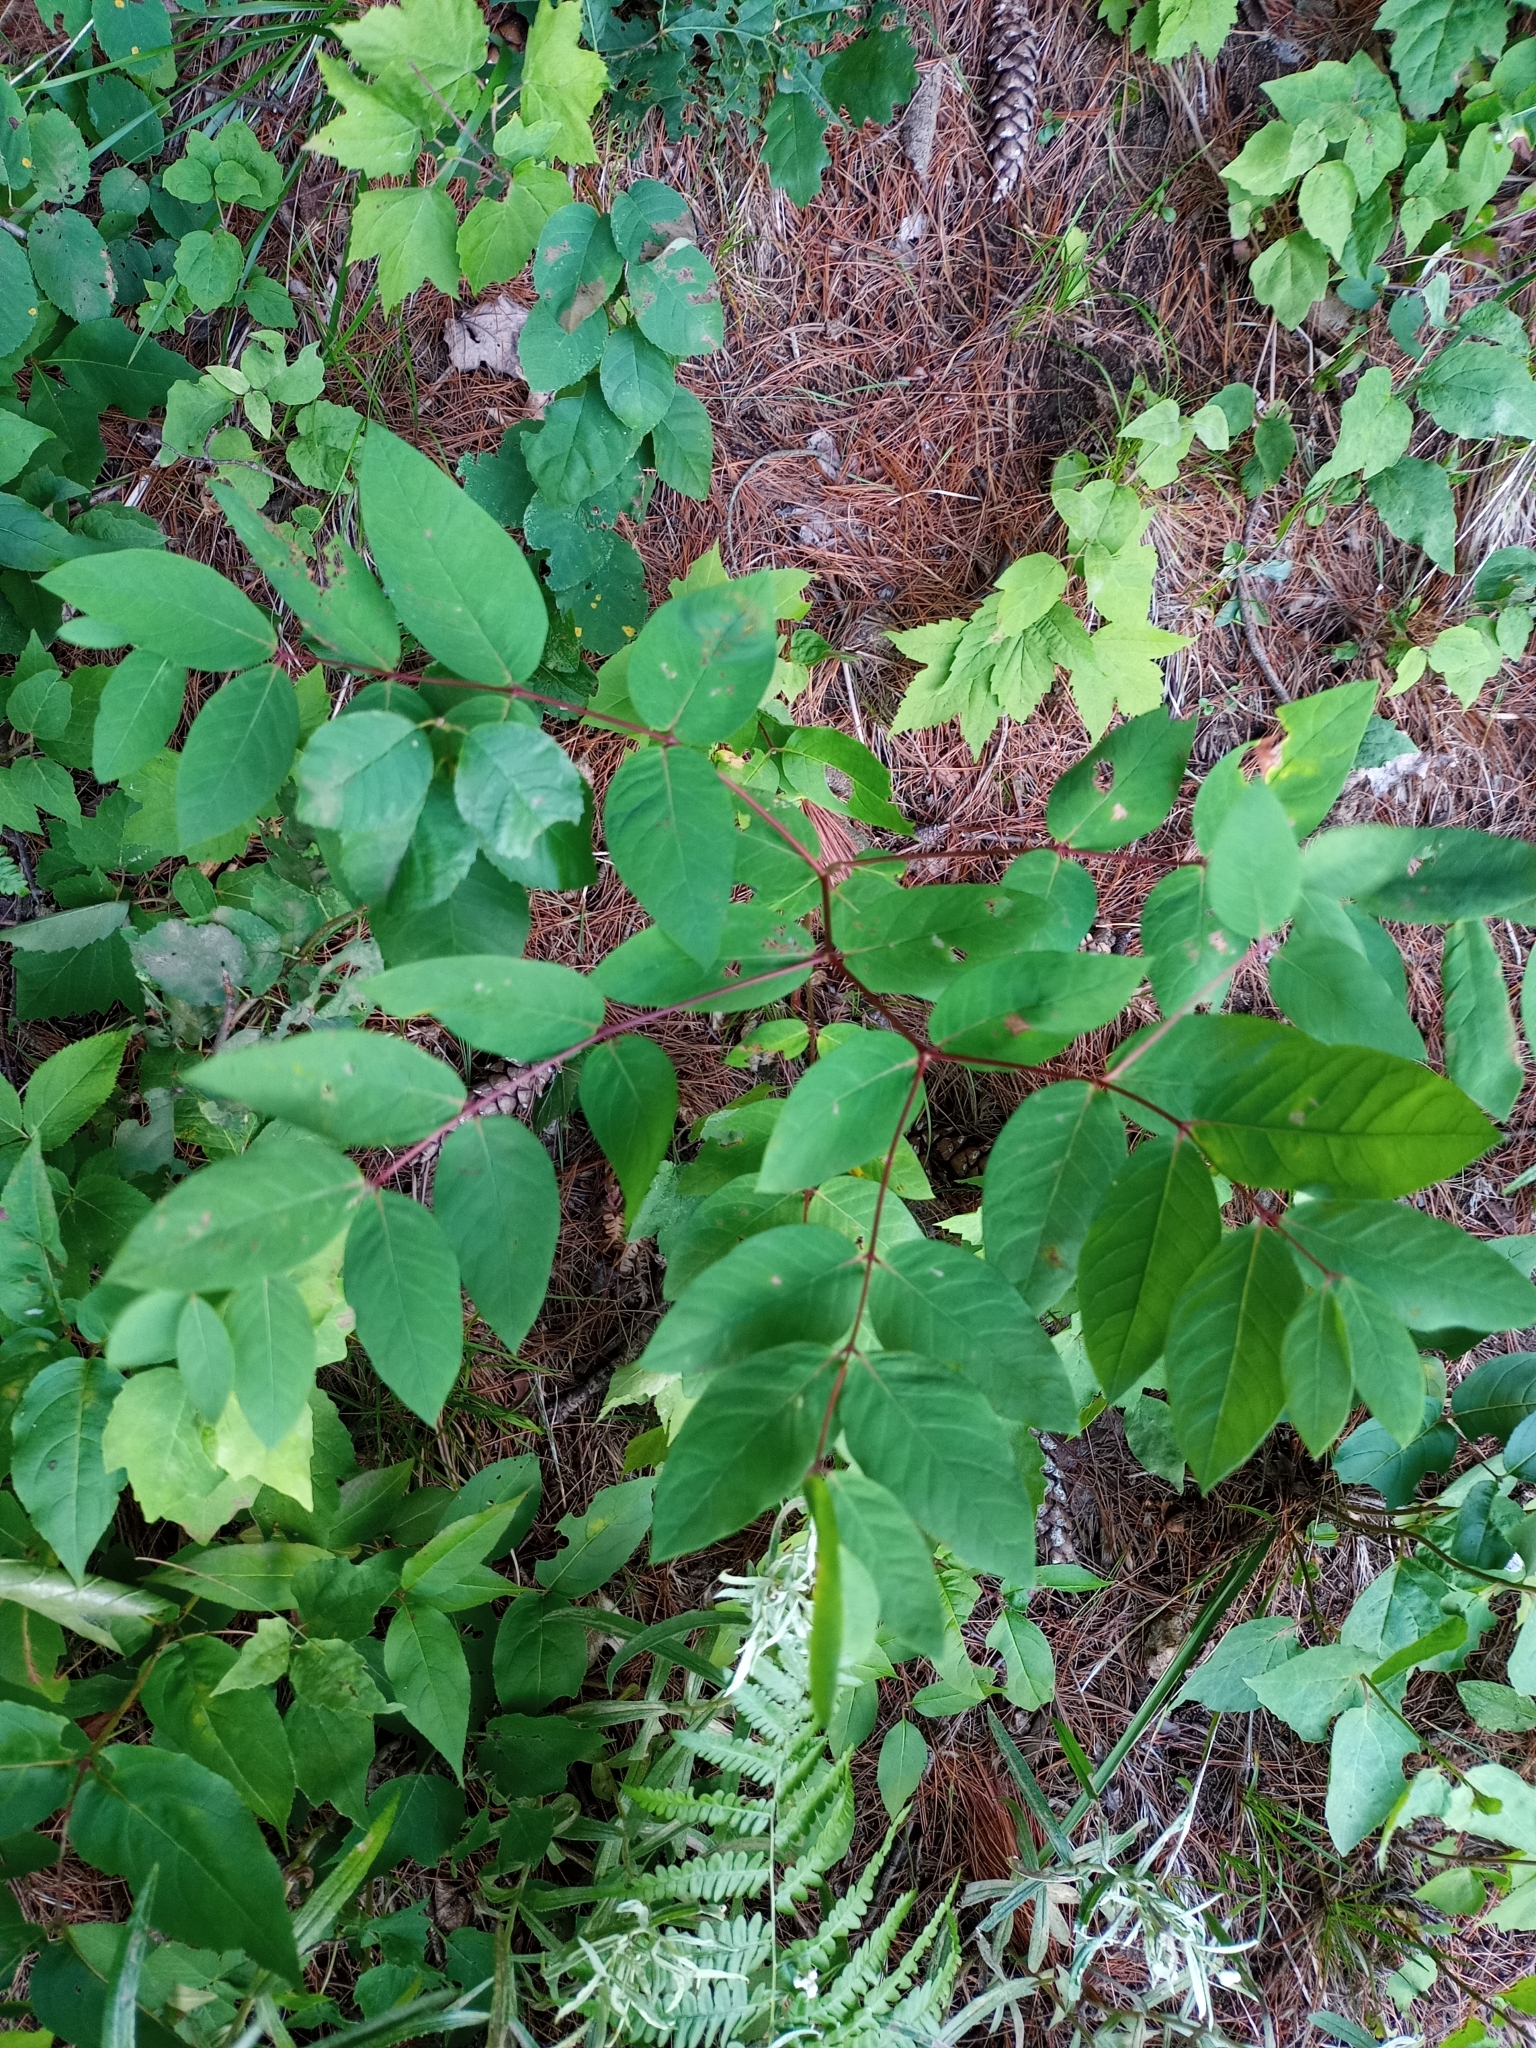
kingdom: Plantae
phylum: Tracheophyta
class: Magnoliopsida
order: Gentianales
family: Apocynaceae
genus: Apocynum
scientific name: Apocynum androsaemifolium
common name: Spreading dogbane
